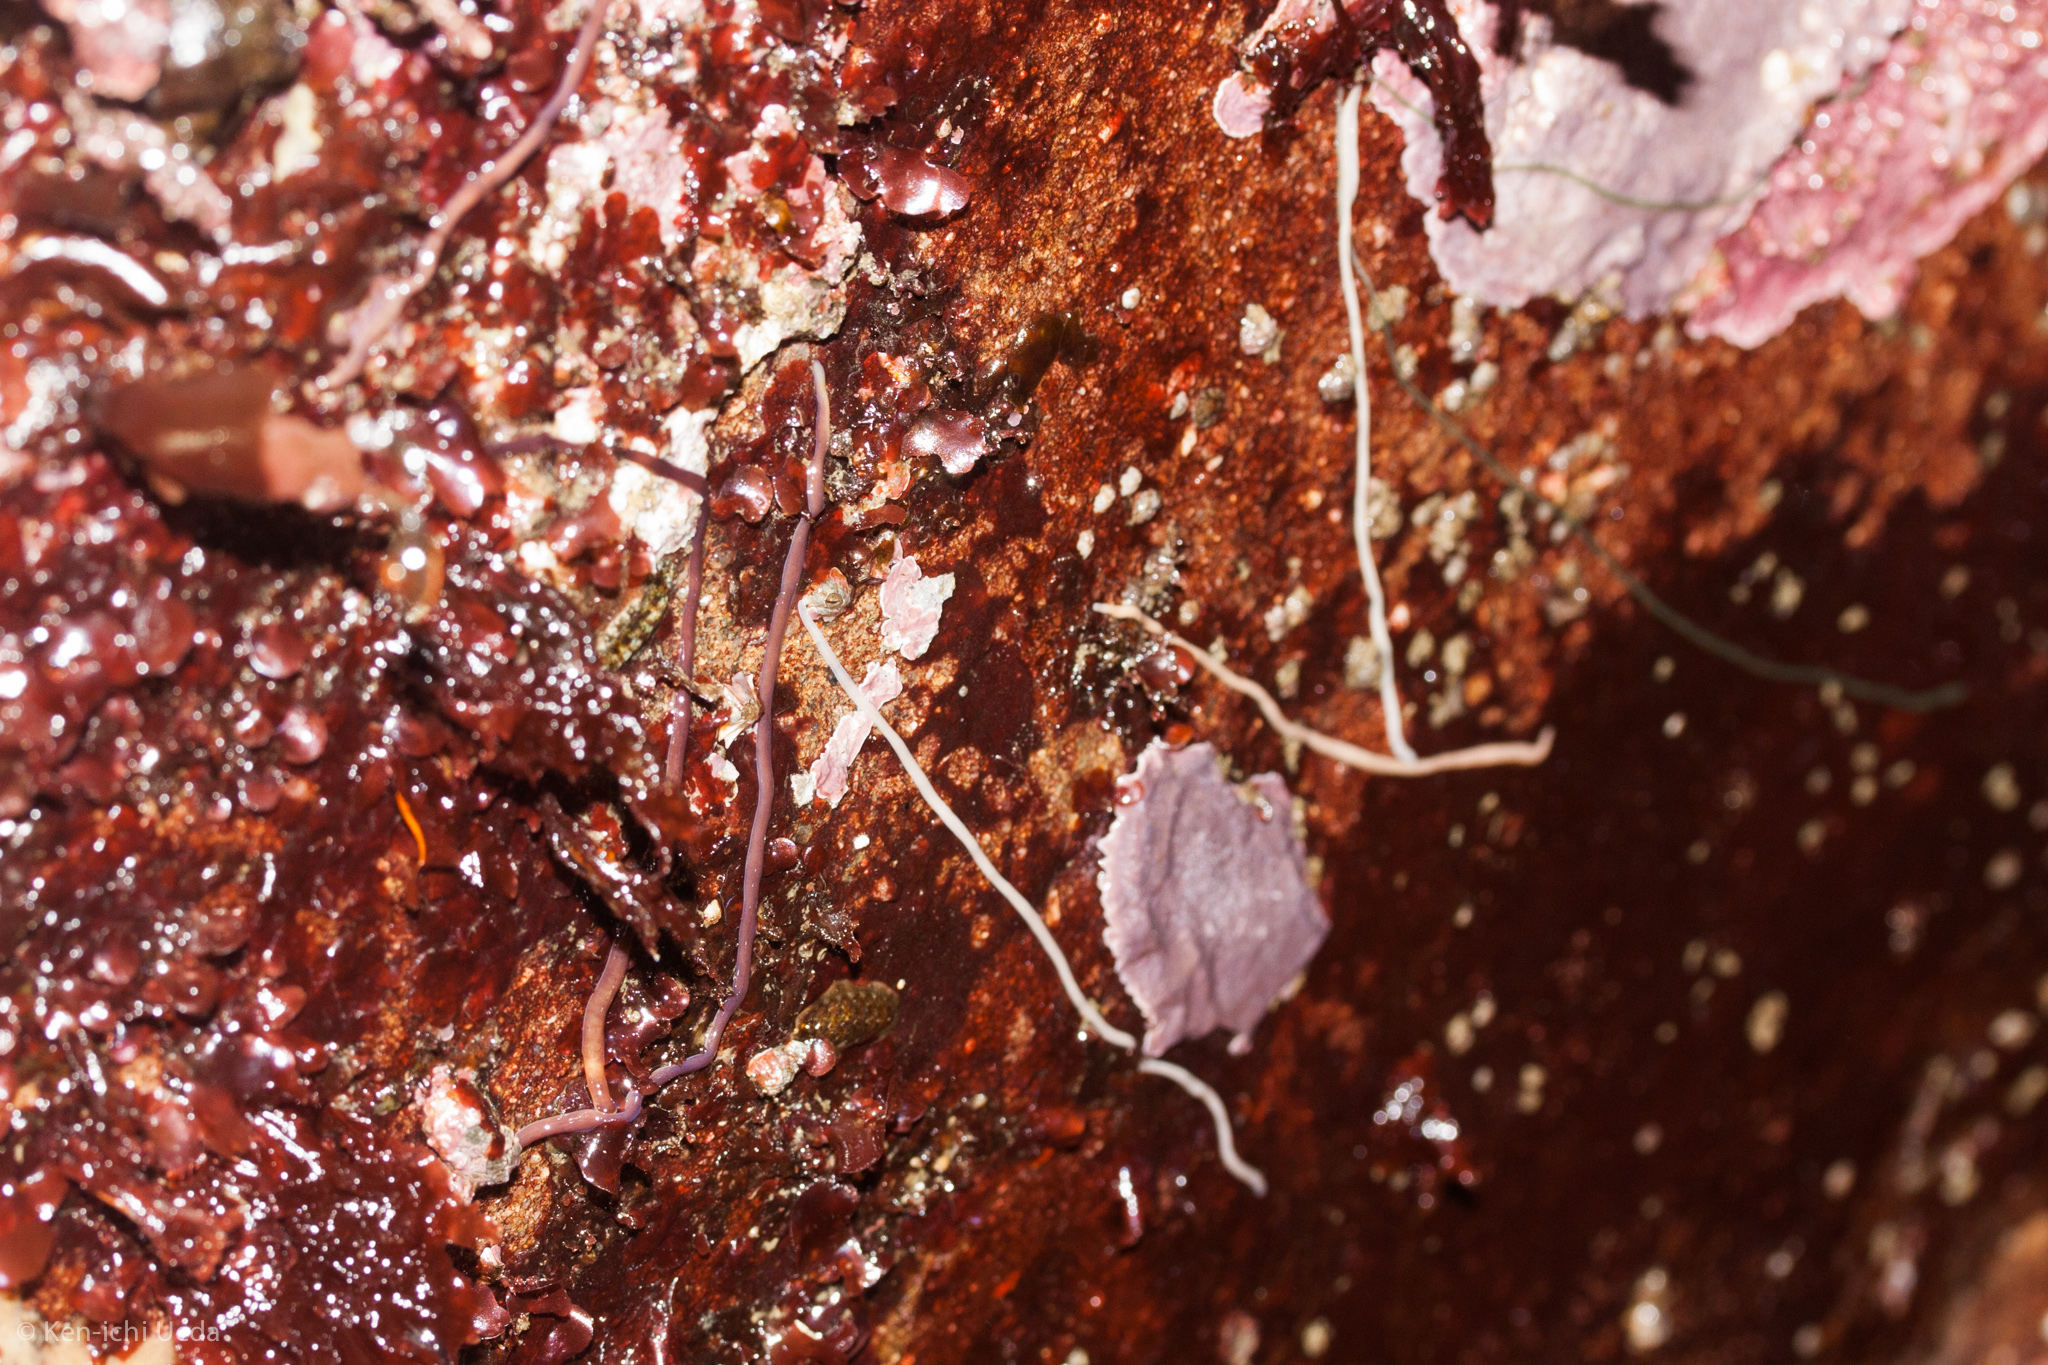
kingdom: Animalia
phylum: Nemertea
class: Hoplonemertea
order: Monostilifera
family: Neesiidae
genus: Paranemertes
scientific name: Paranemertes peregrina
